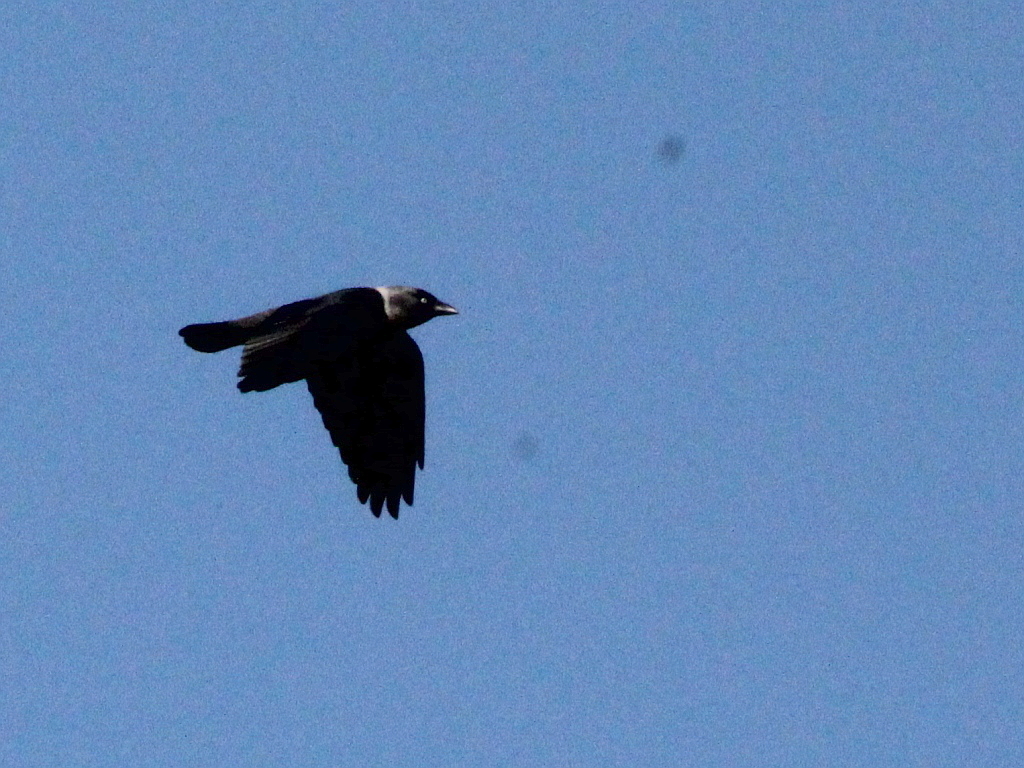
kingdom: Animalia
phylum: Chordata
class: Aves
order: Passeriformes
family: Corvidae
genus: Coloeus
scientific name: Coloeus monedula
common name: Western jackdaw
